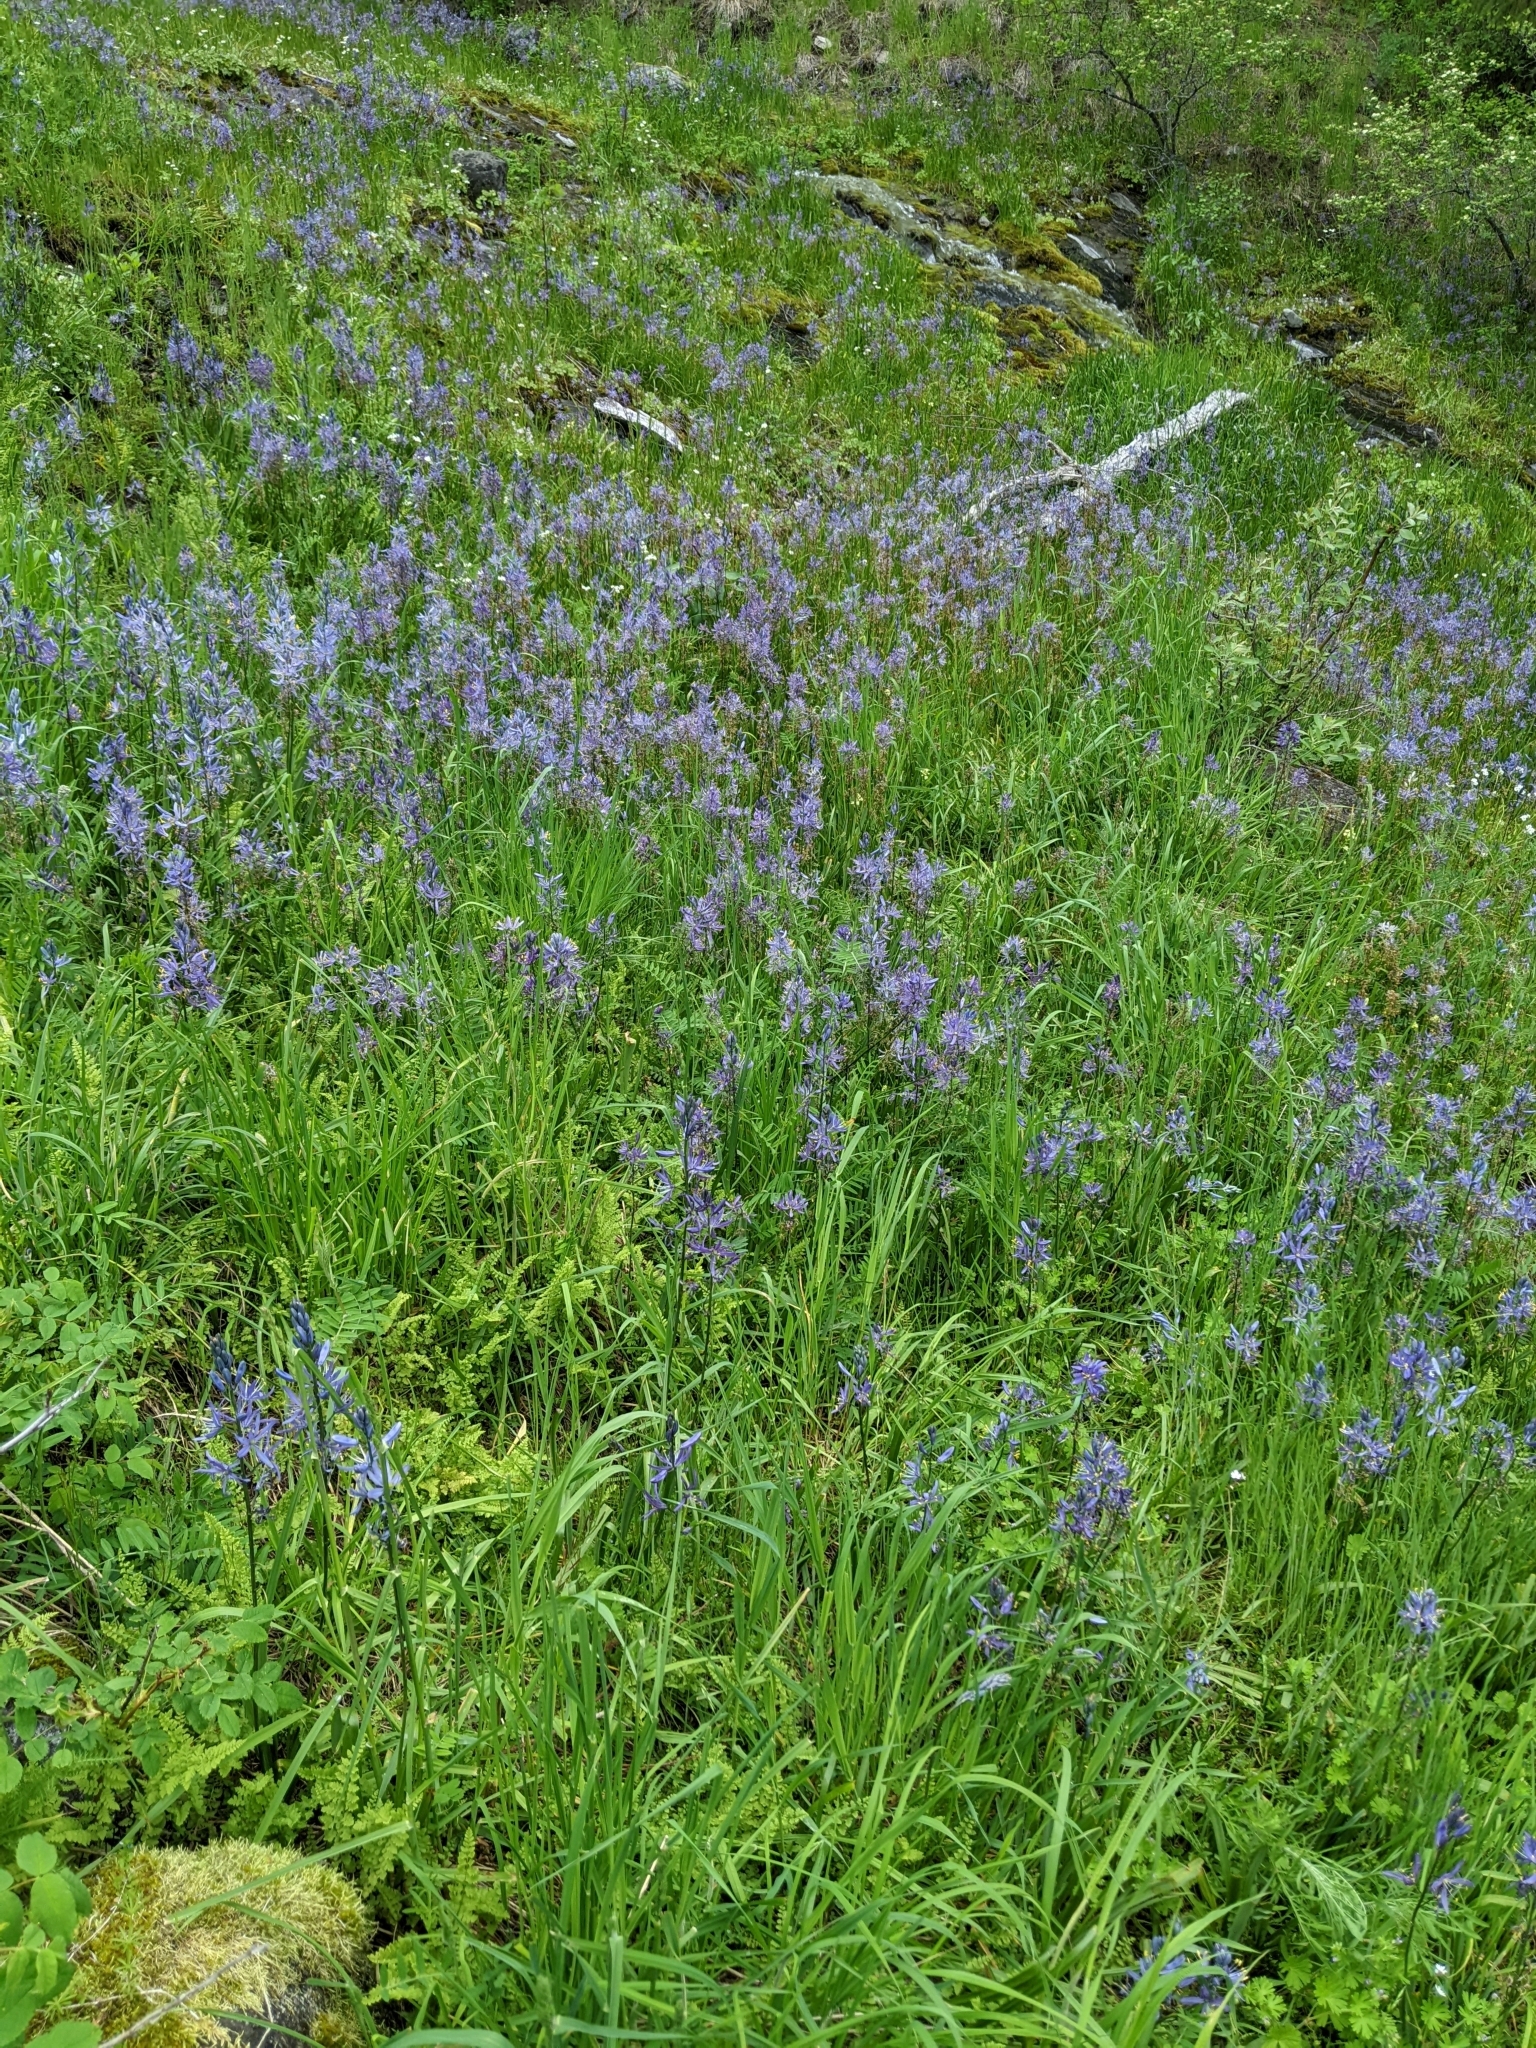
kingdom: Plantae
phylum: Tracheophyta
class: Liliopsida
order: Asparagales
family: Asparagaceae
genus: Camassia
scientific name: Camassia quamash
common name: Common camas
